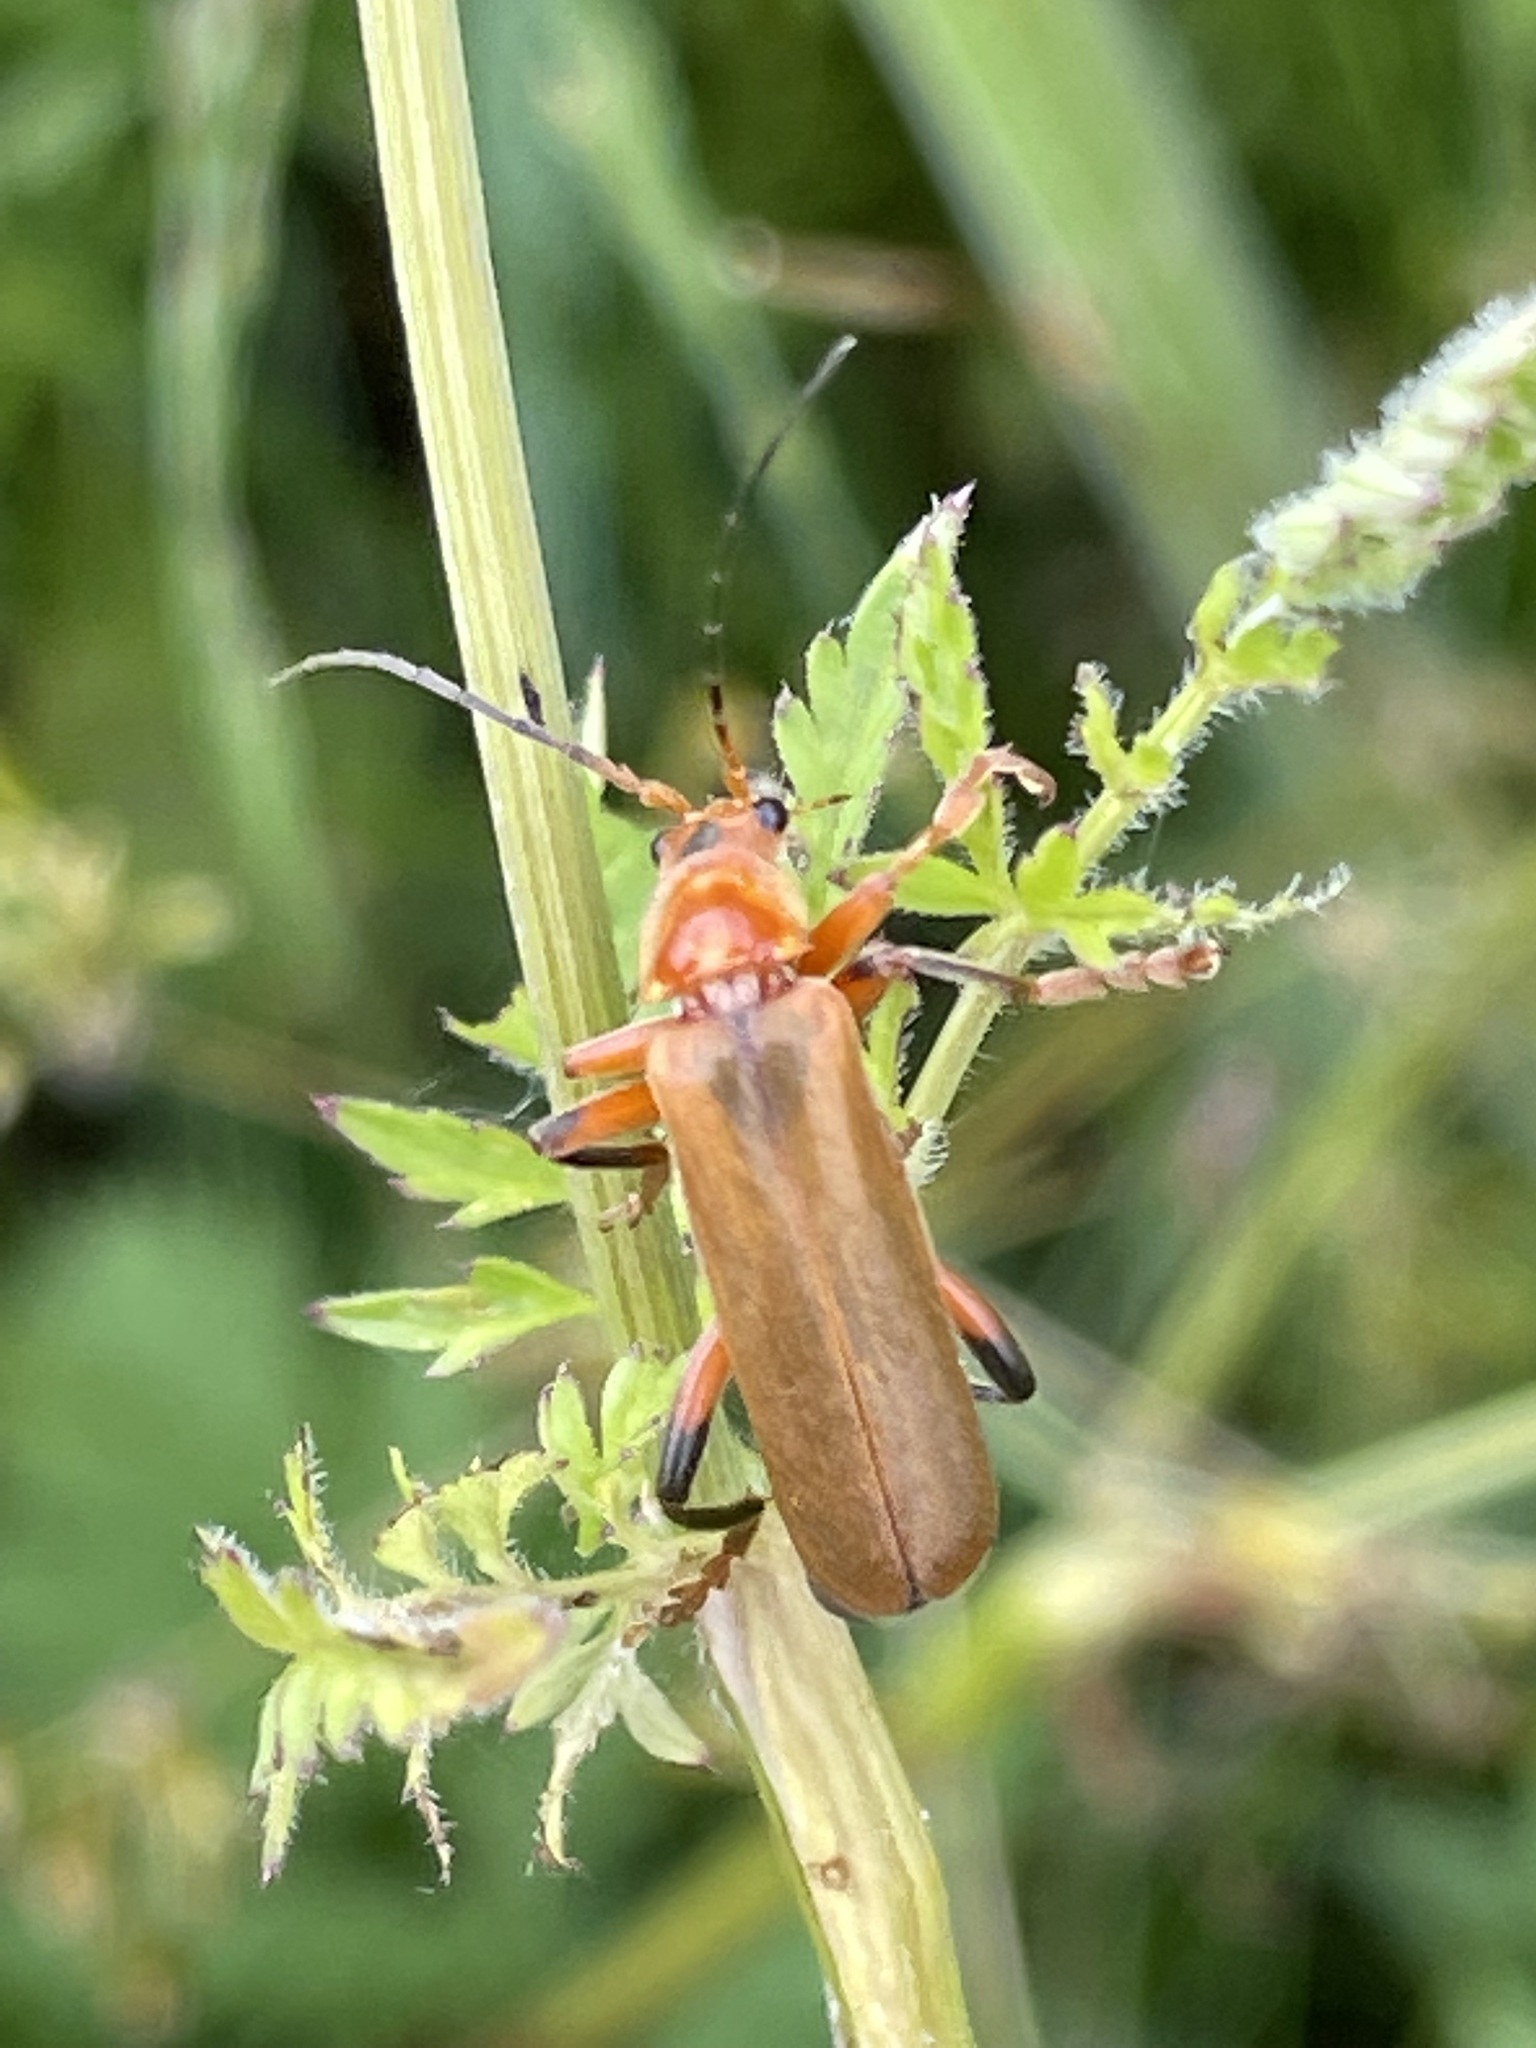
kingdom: Animalia
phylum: Arthropoda
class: Insecta
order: Coleoptera
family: Cantharidae
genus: Cantharis
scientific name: Cantharis livida
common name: Livid soldier beetle
